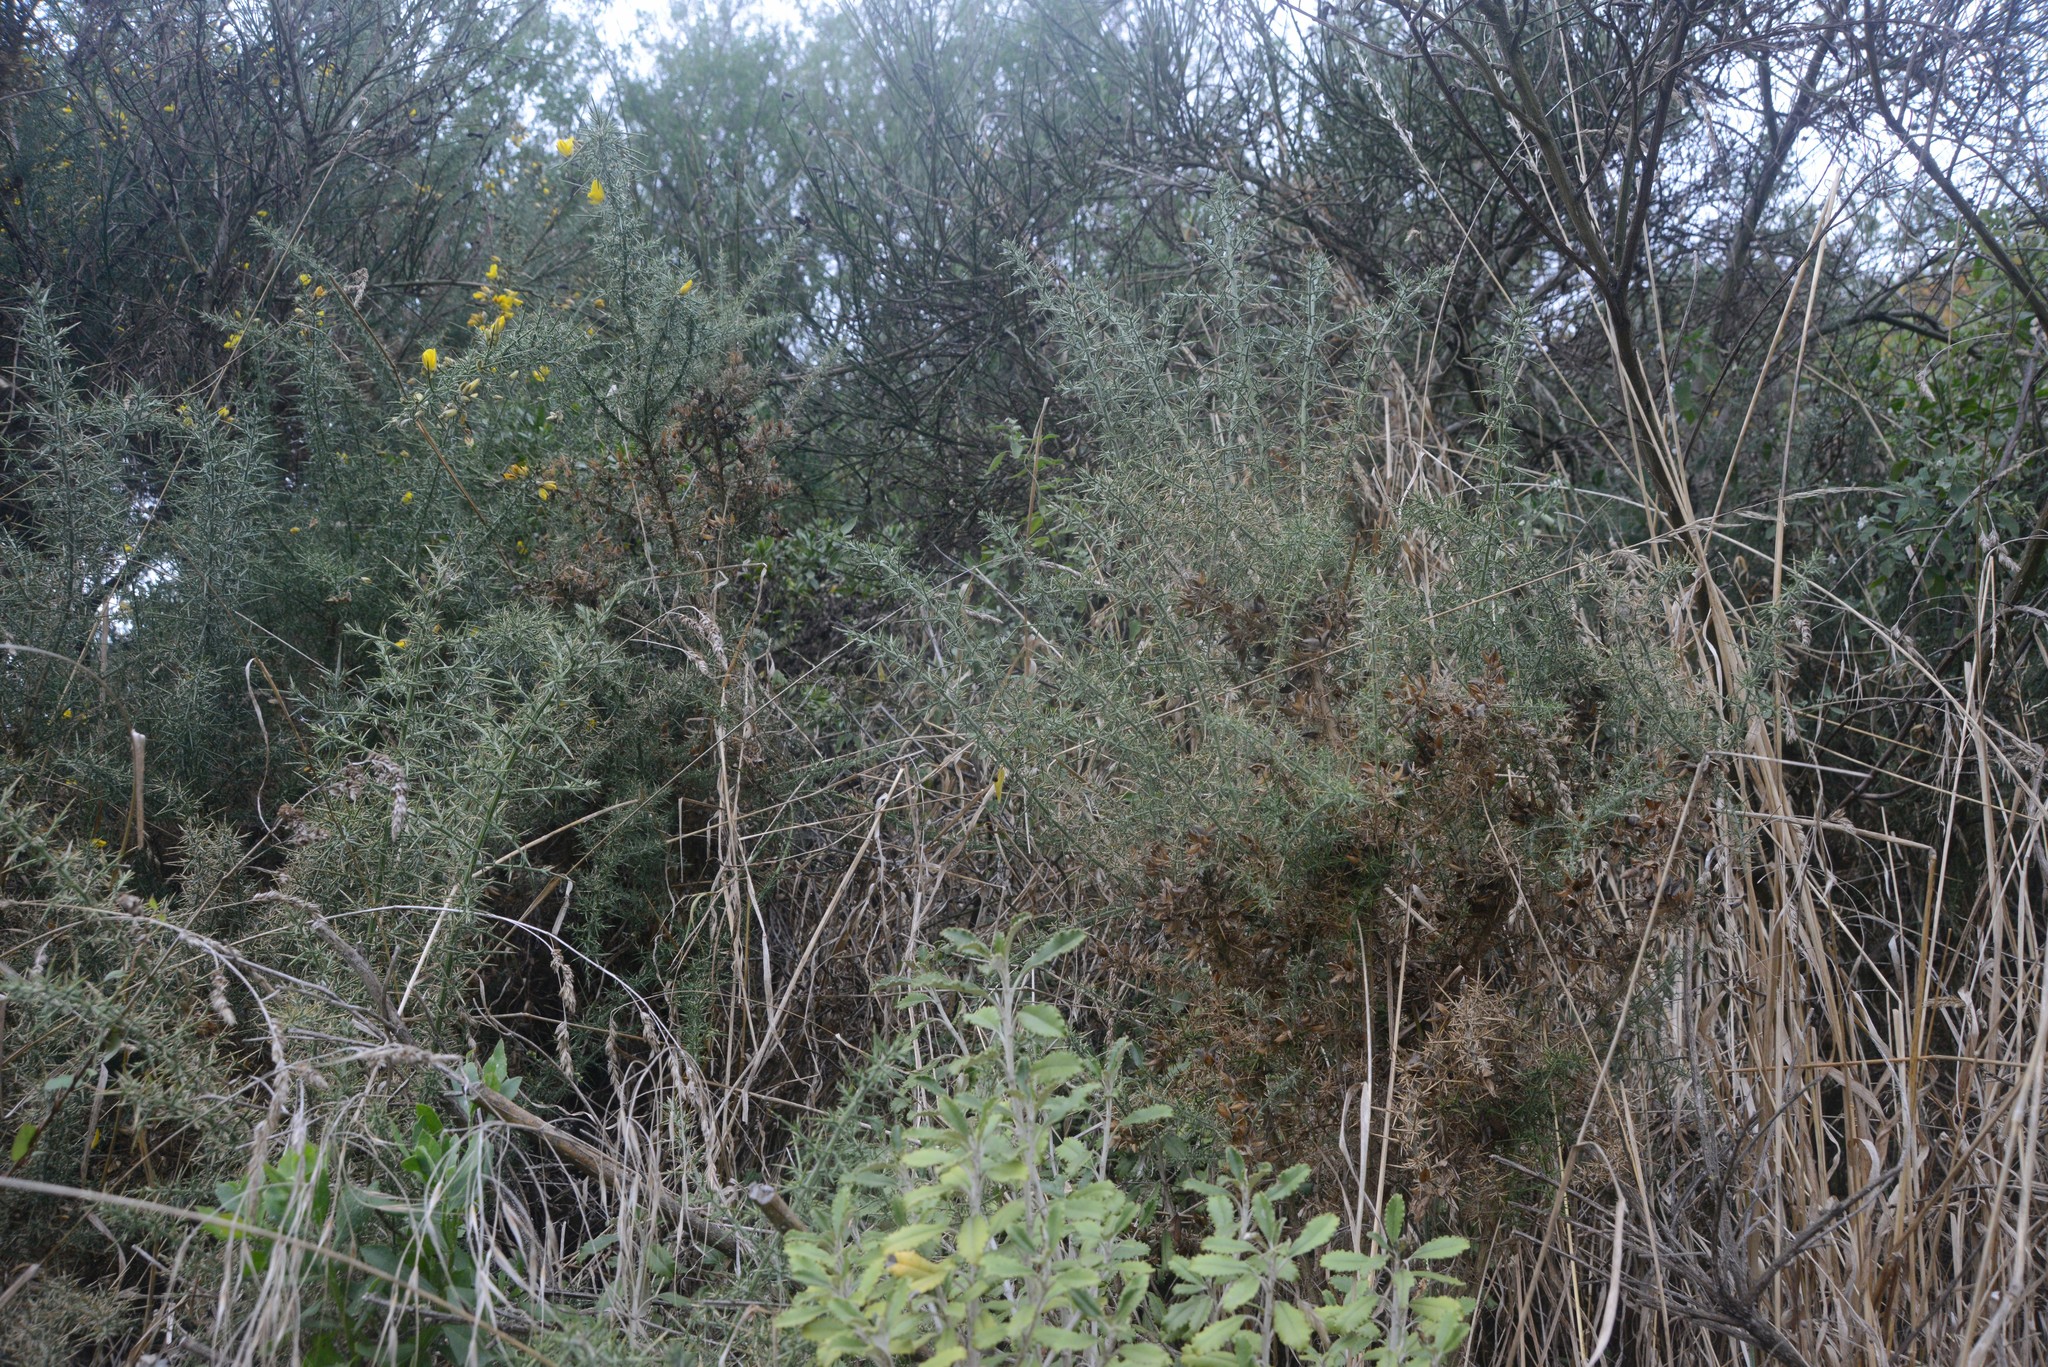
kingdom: Plantae
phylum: Tracheophyta
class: Magnoliopsida
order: Fabales
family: Fabaceae
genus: Ulex
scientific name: Ulex europaeus
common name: Common gorse
